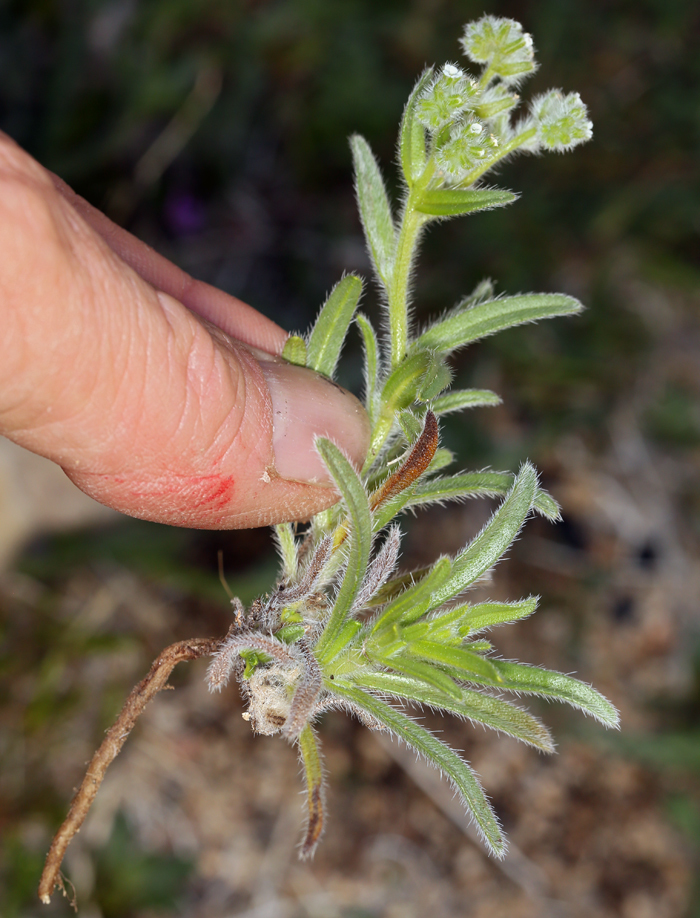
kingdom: Plantae
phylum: Tracheophyta
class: Magnoliopsida
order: Boraginales
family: Boraginaceae
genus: Cryptantha
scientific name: Cryptantha barbigera
